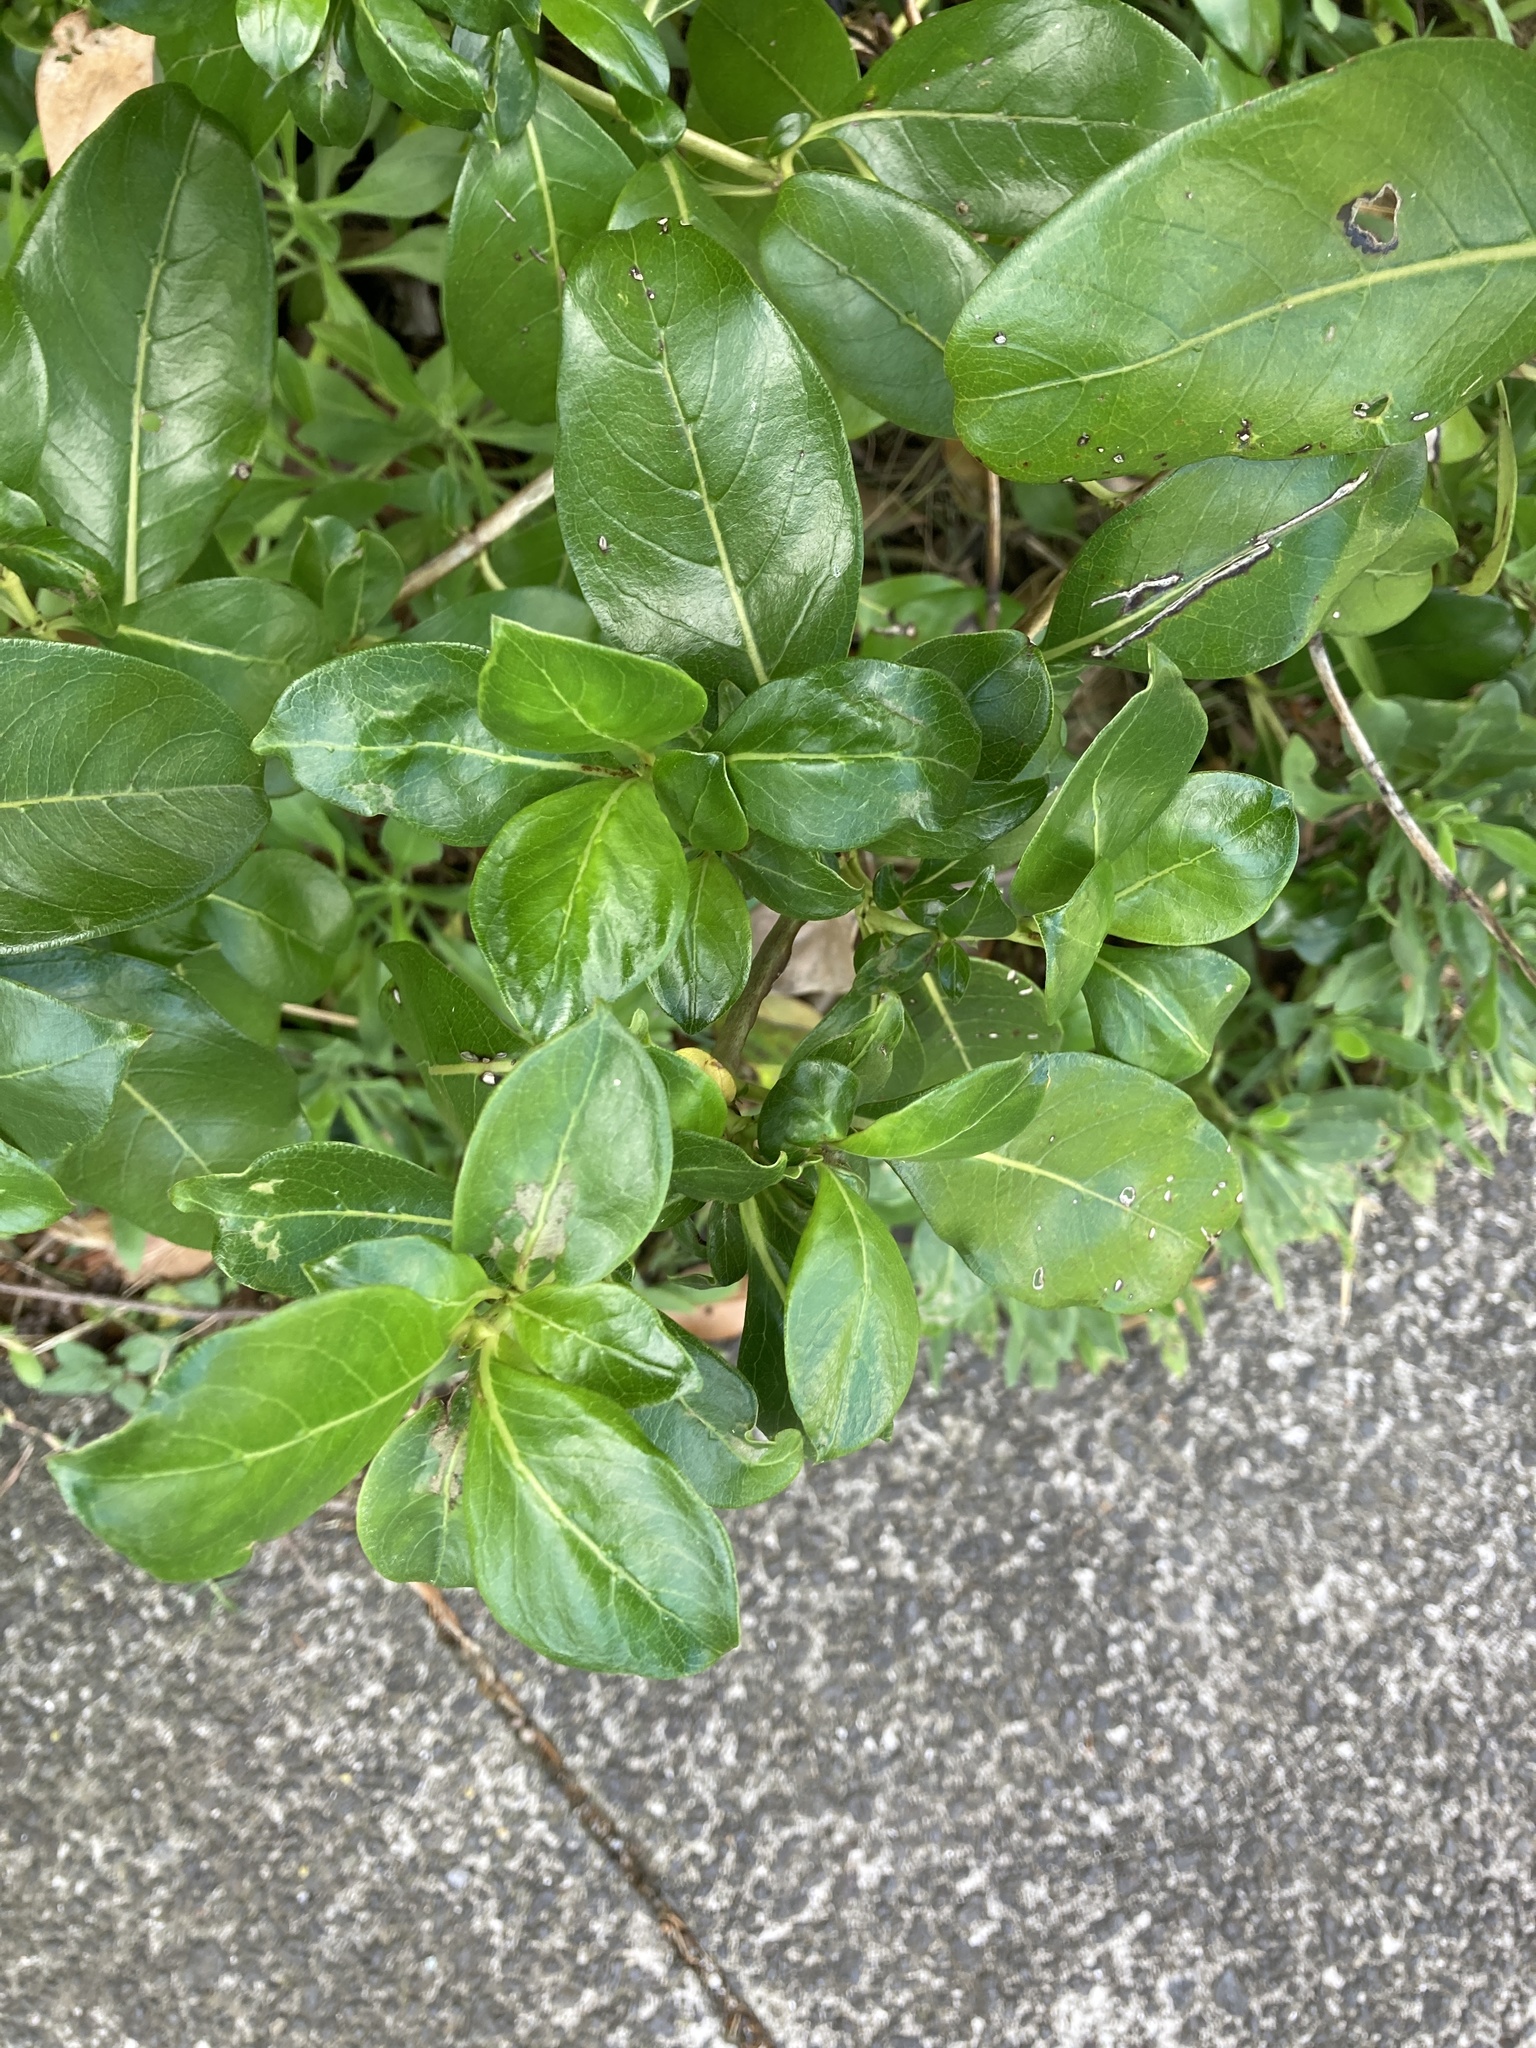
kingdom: Plantae
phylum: Tracheophyta
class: Magnoliopsida
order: Gentianales
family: Rubiaceae
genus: Coprosma
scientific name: Coprosma robusta
